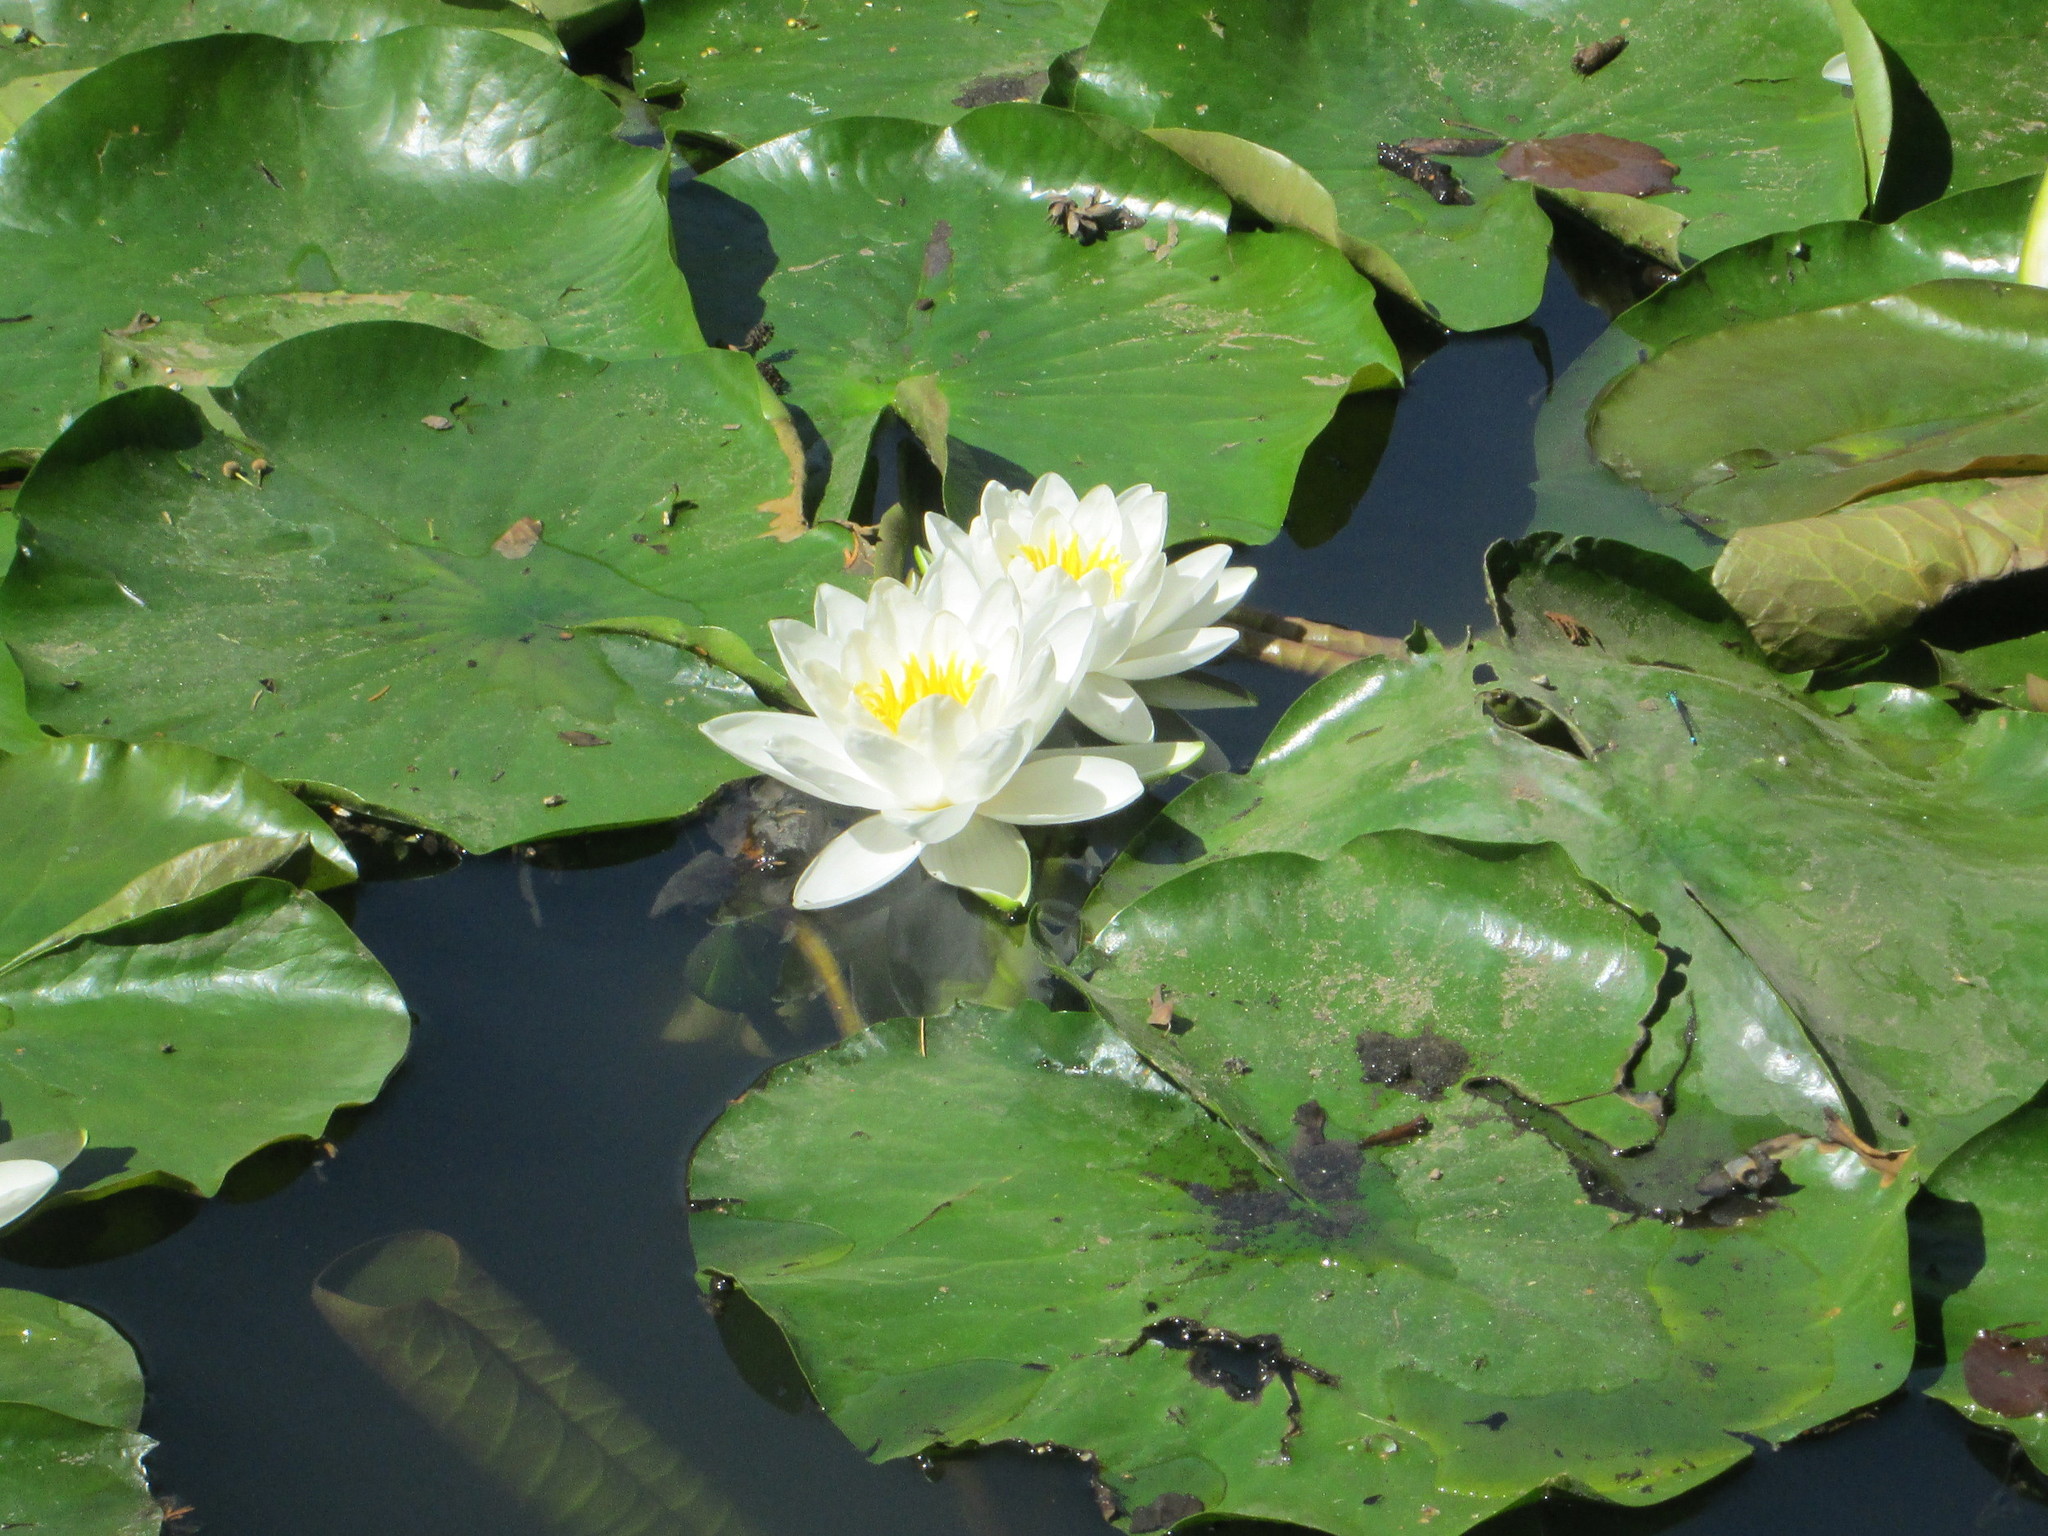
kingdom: Plantae
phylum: Tracheophyta
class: Magnoliopsida
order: Nymphaeales
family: Nymphaeaceae
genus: Nymphaea
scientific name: Nymphaea alba
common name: White water-lily
